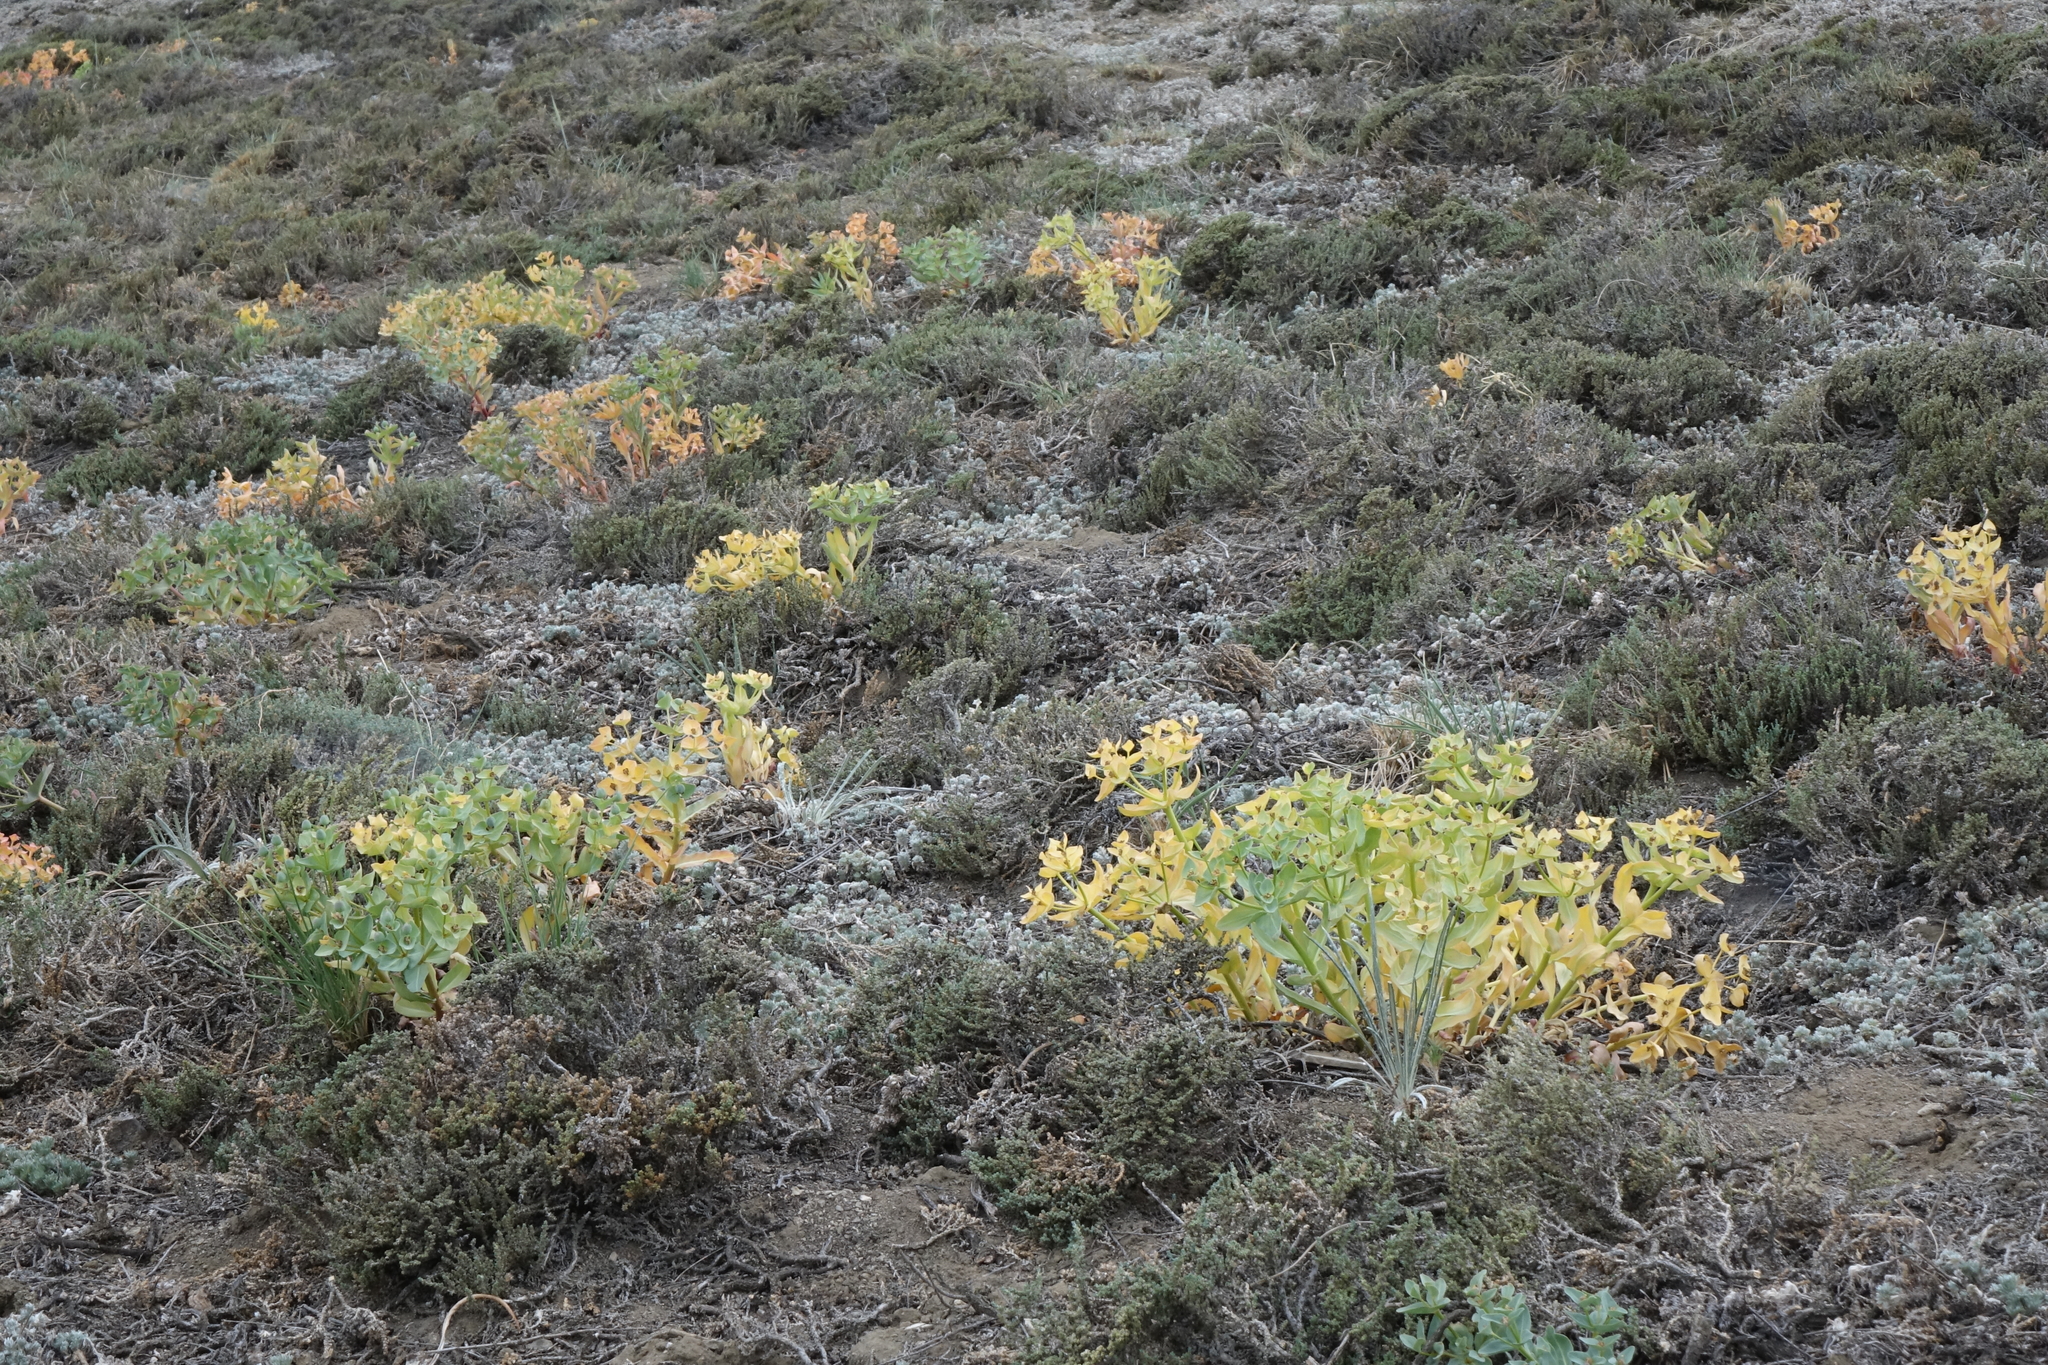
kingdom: Plantae
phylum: Tracheophyta
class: Magnoliopsida
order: Malpighiales
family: Euphorbiaceae
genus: Euphorbia
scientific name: Euphorbia mongolica
